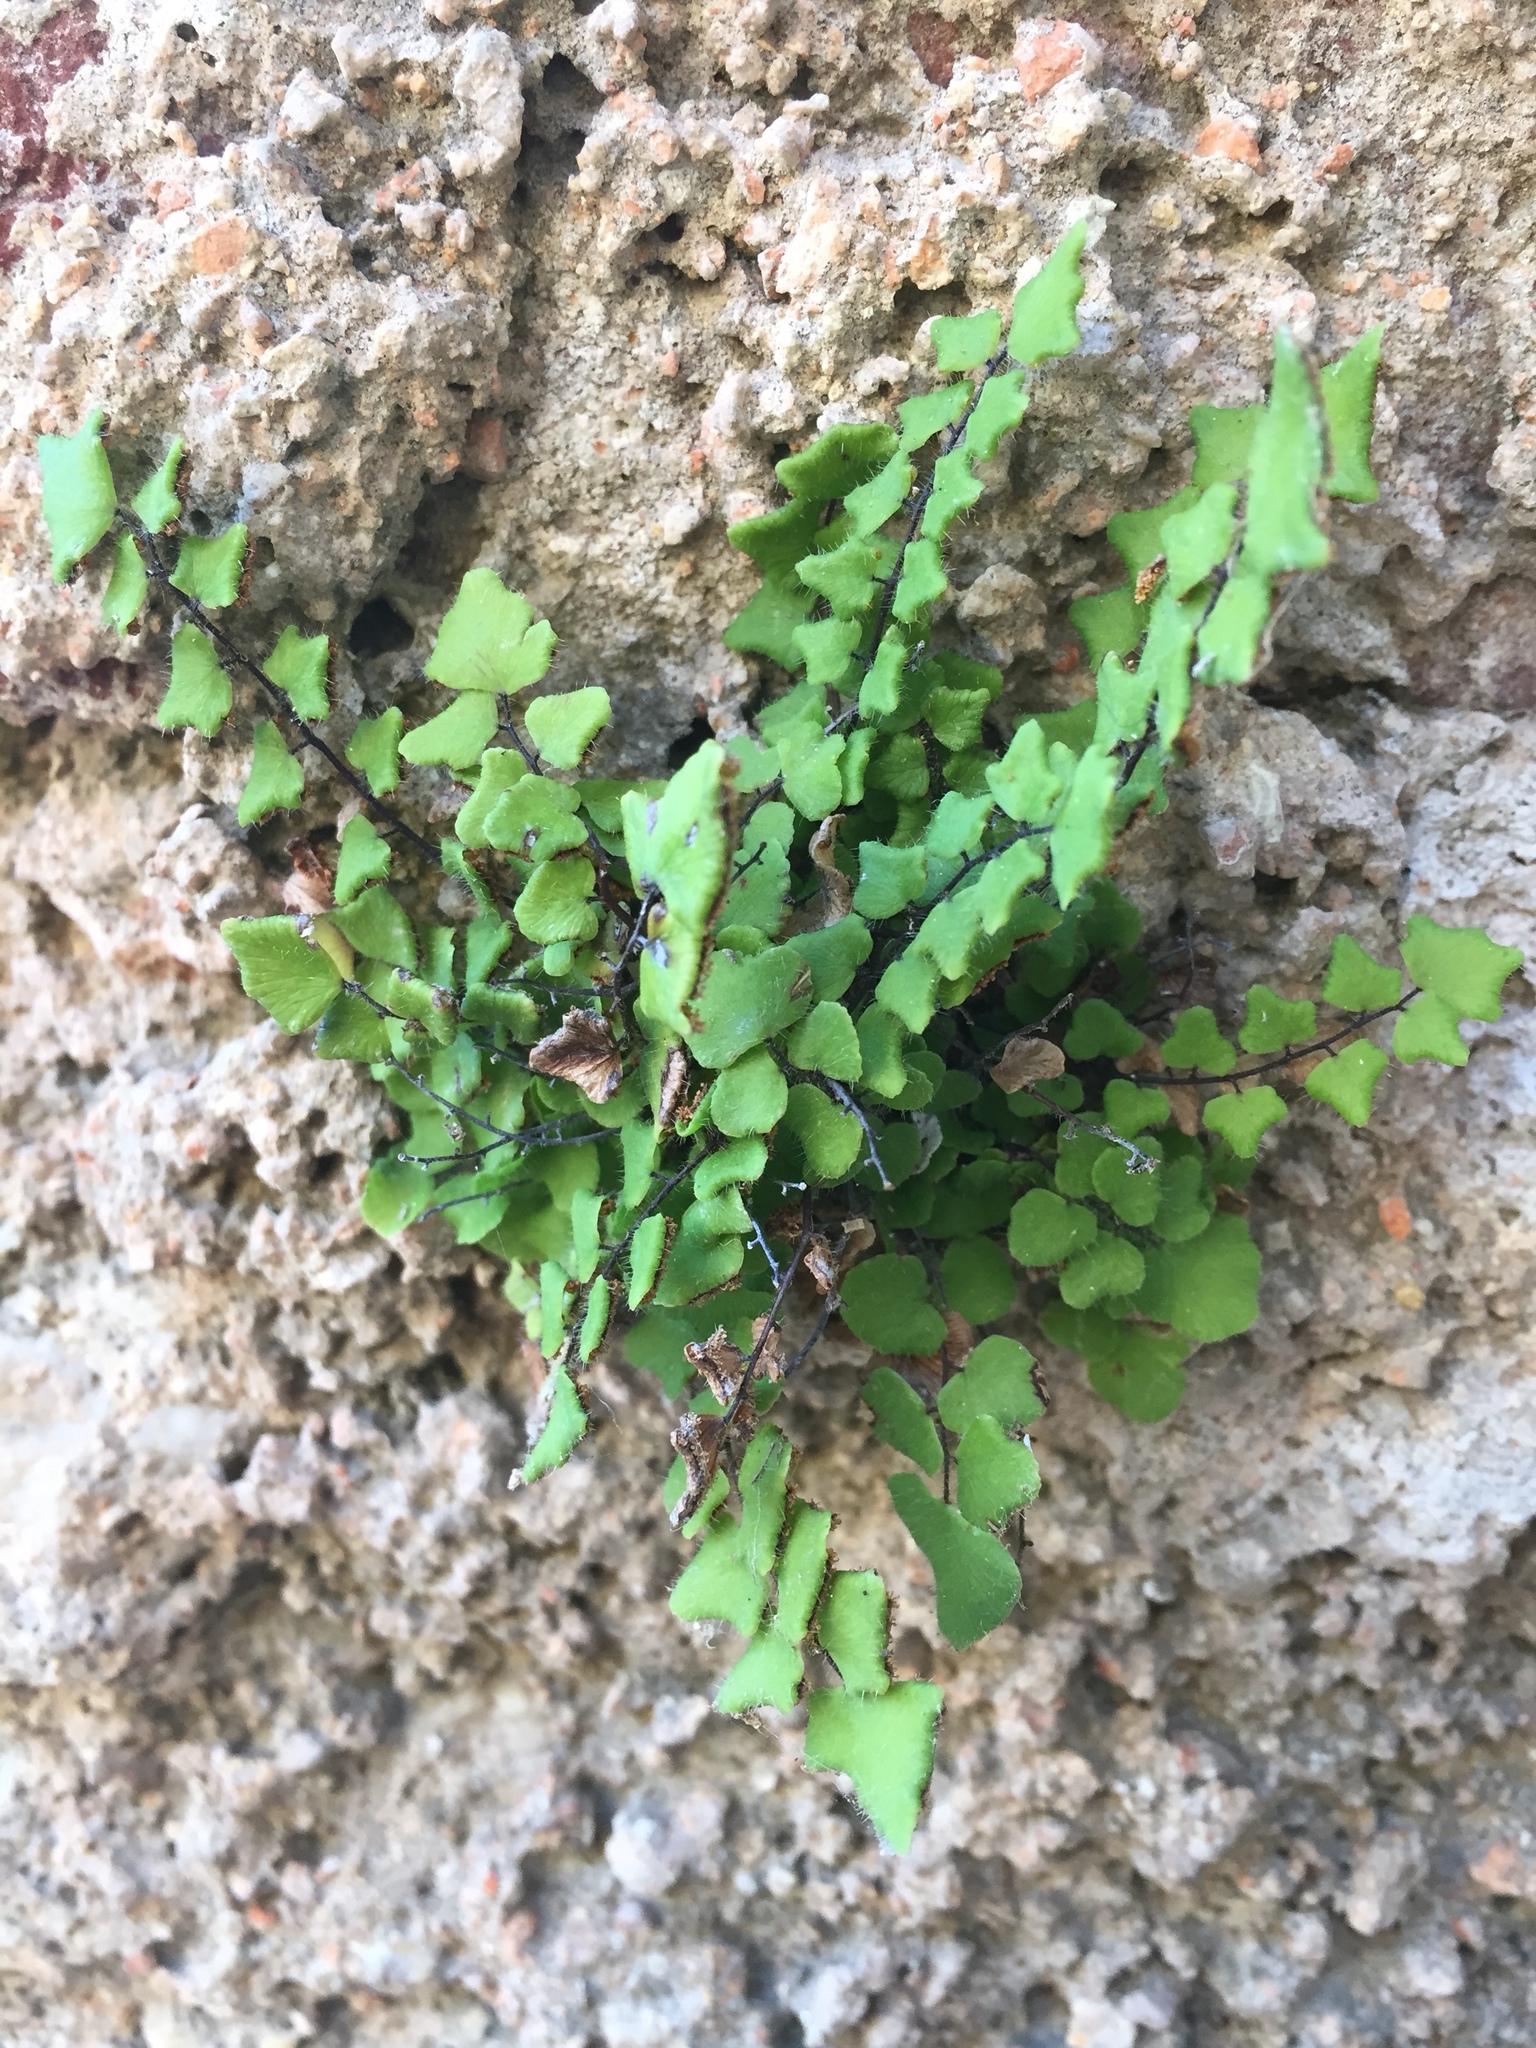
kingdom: Plantae
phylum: Tracheophyta
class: Polypodiopsida
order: Polypodiales
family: Pteridaceae
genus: Adiantum
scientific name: Adiantum deltoideum
